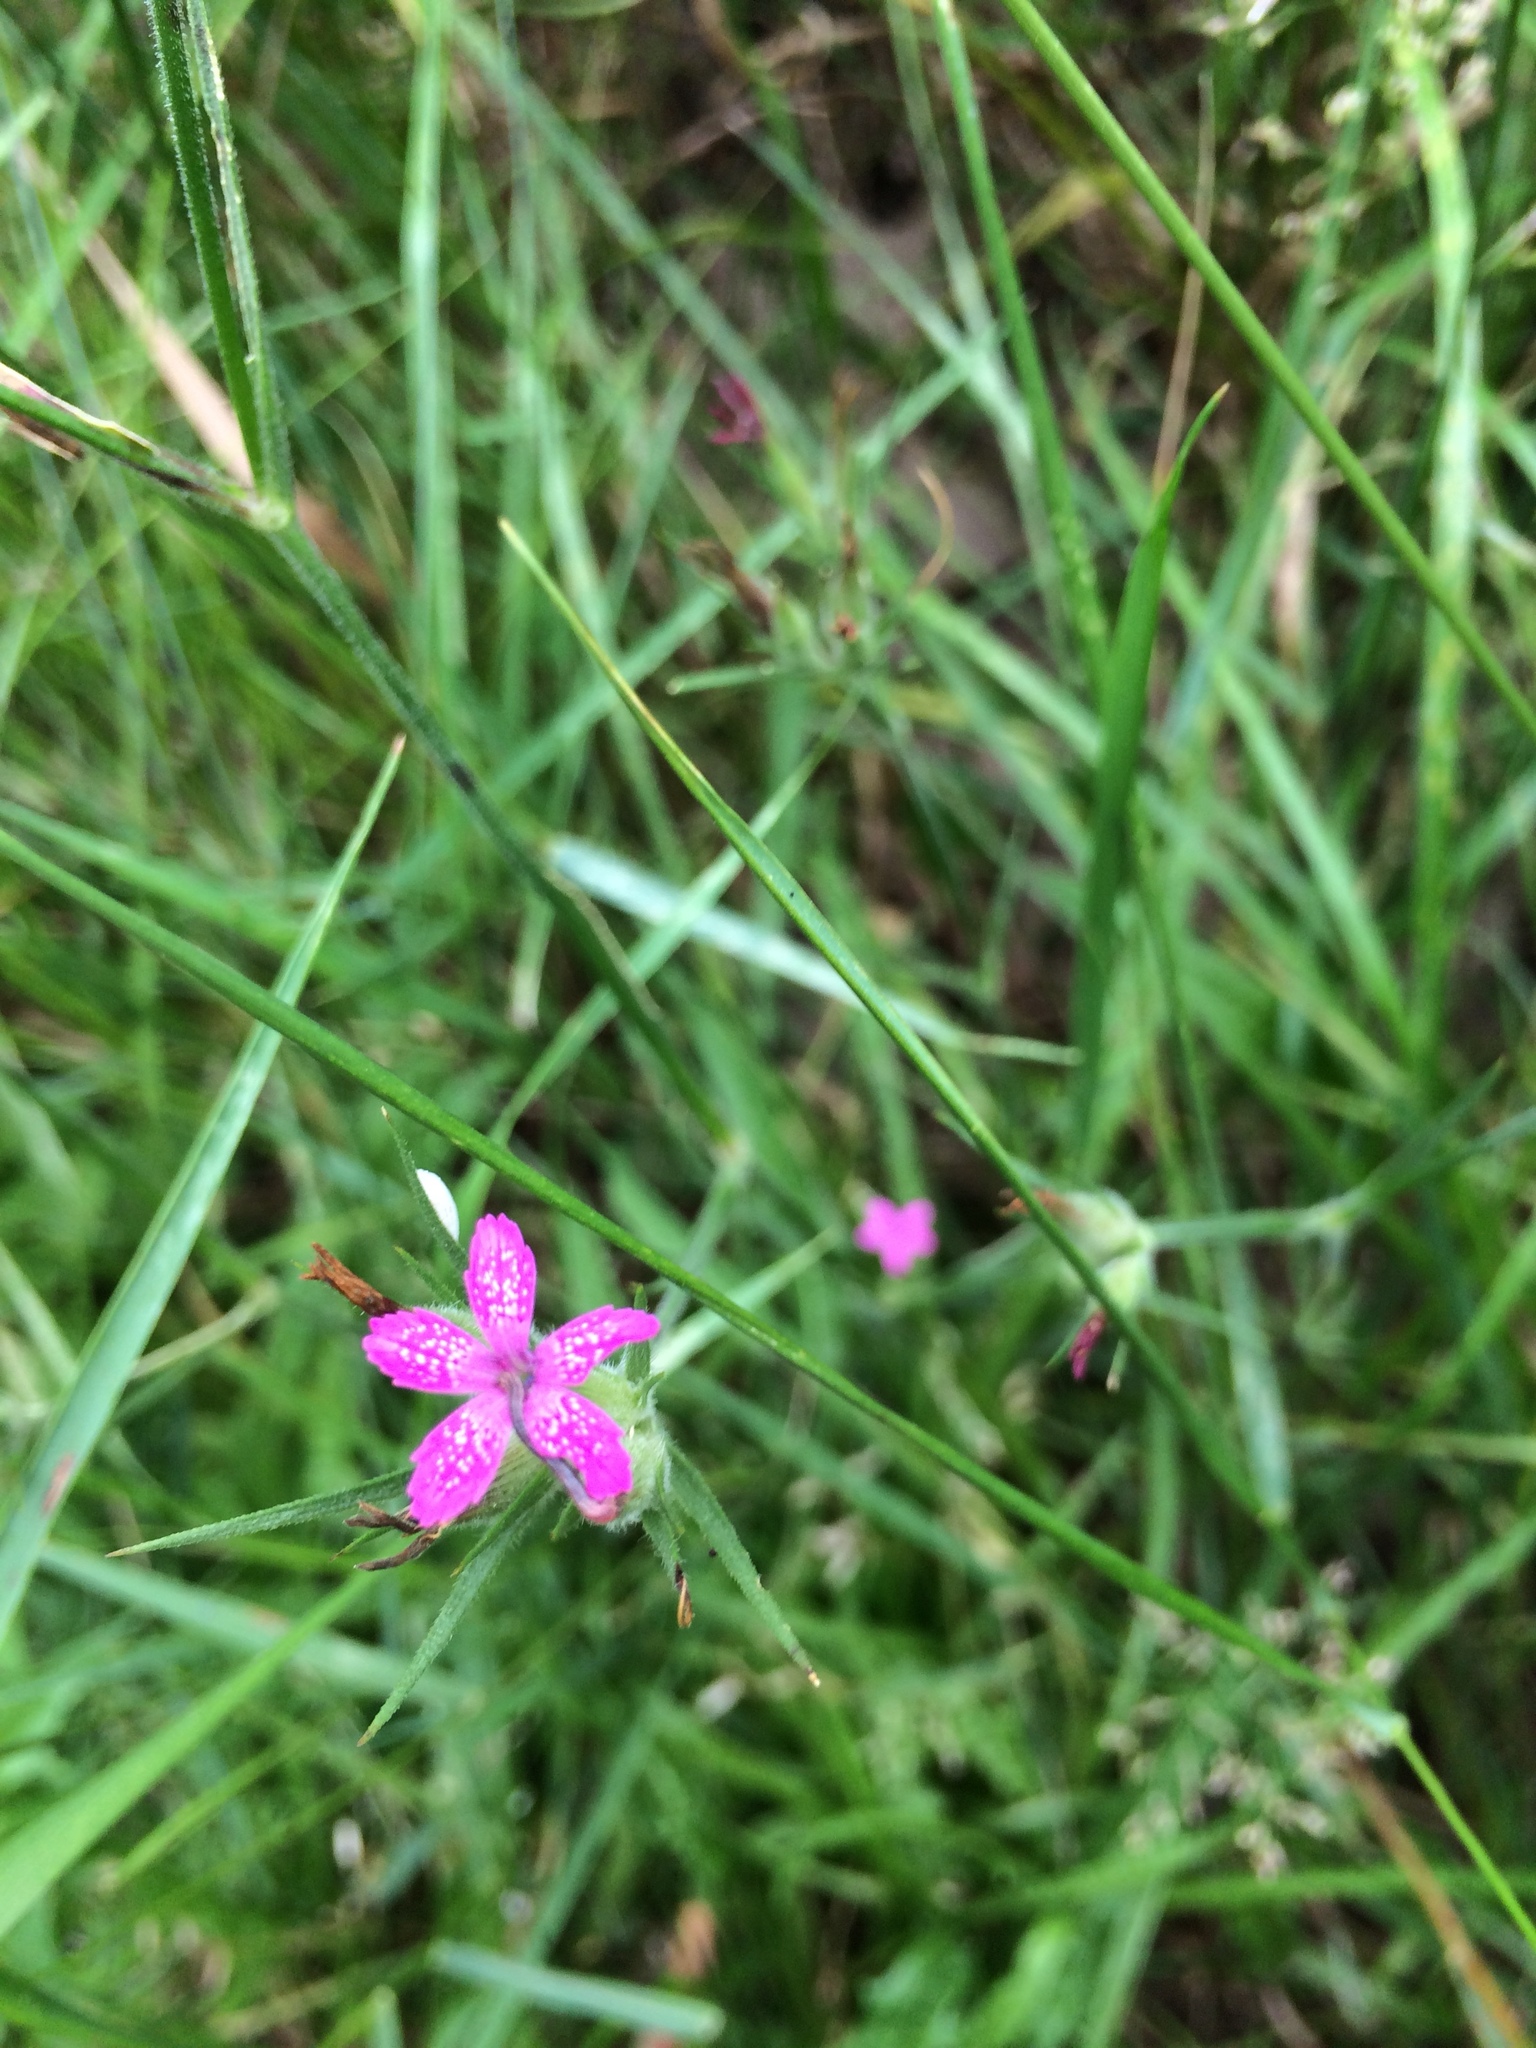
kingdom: Plantae
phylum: Tracheophyta
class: Magnoliopsida
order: Caryophyllales
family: Caryophyllaceae
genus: Dianthus
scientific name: Dianthus armeria
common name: Deptford pink
